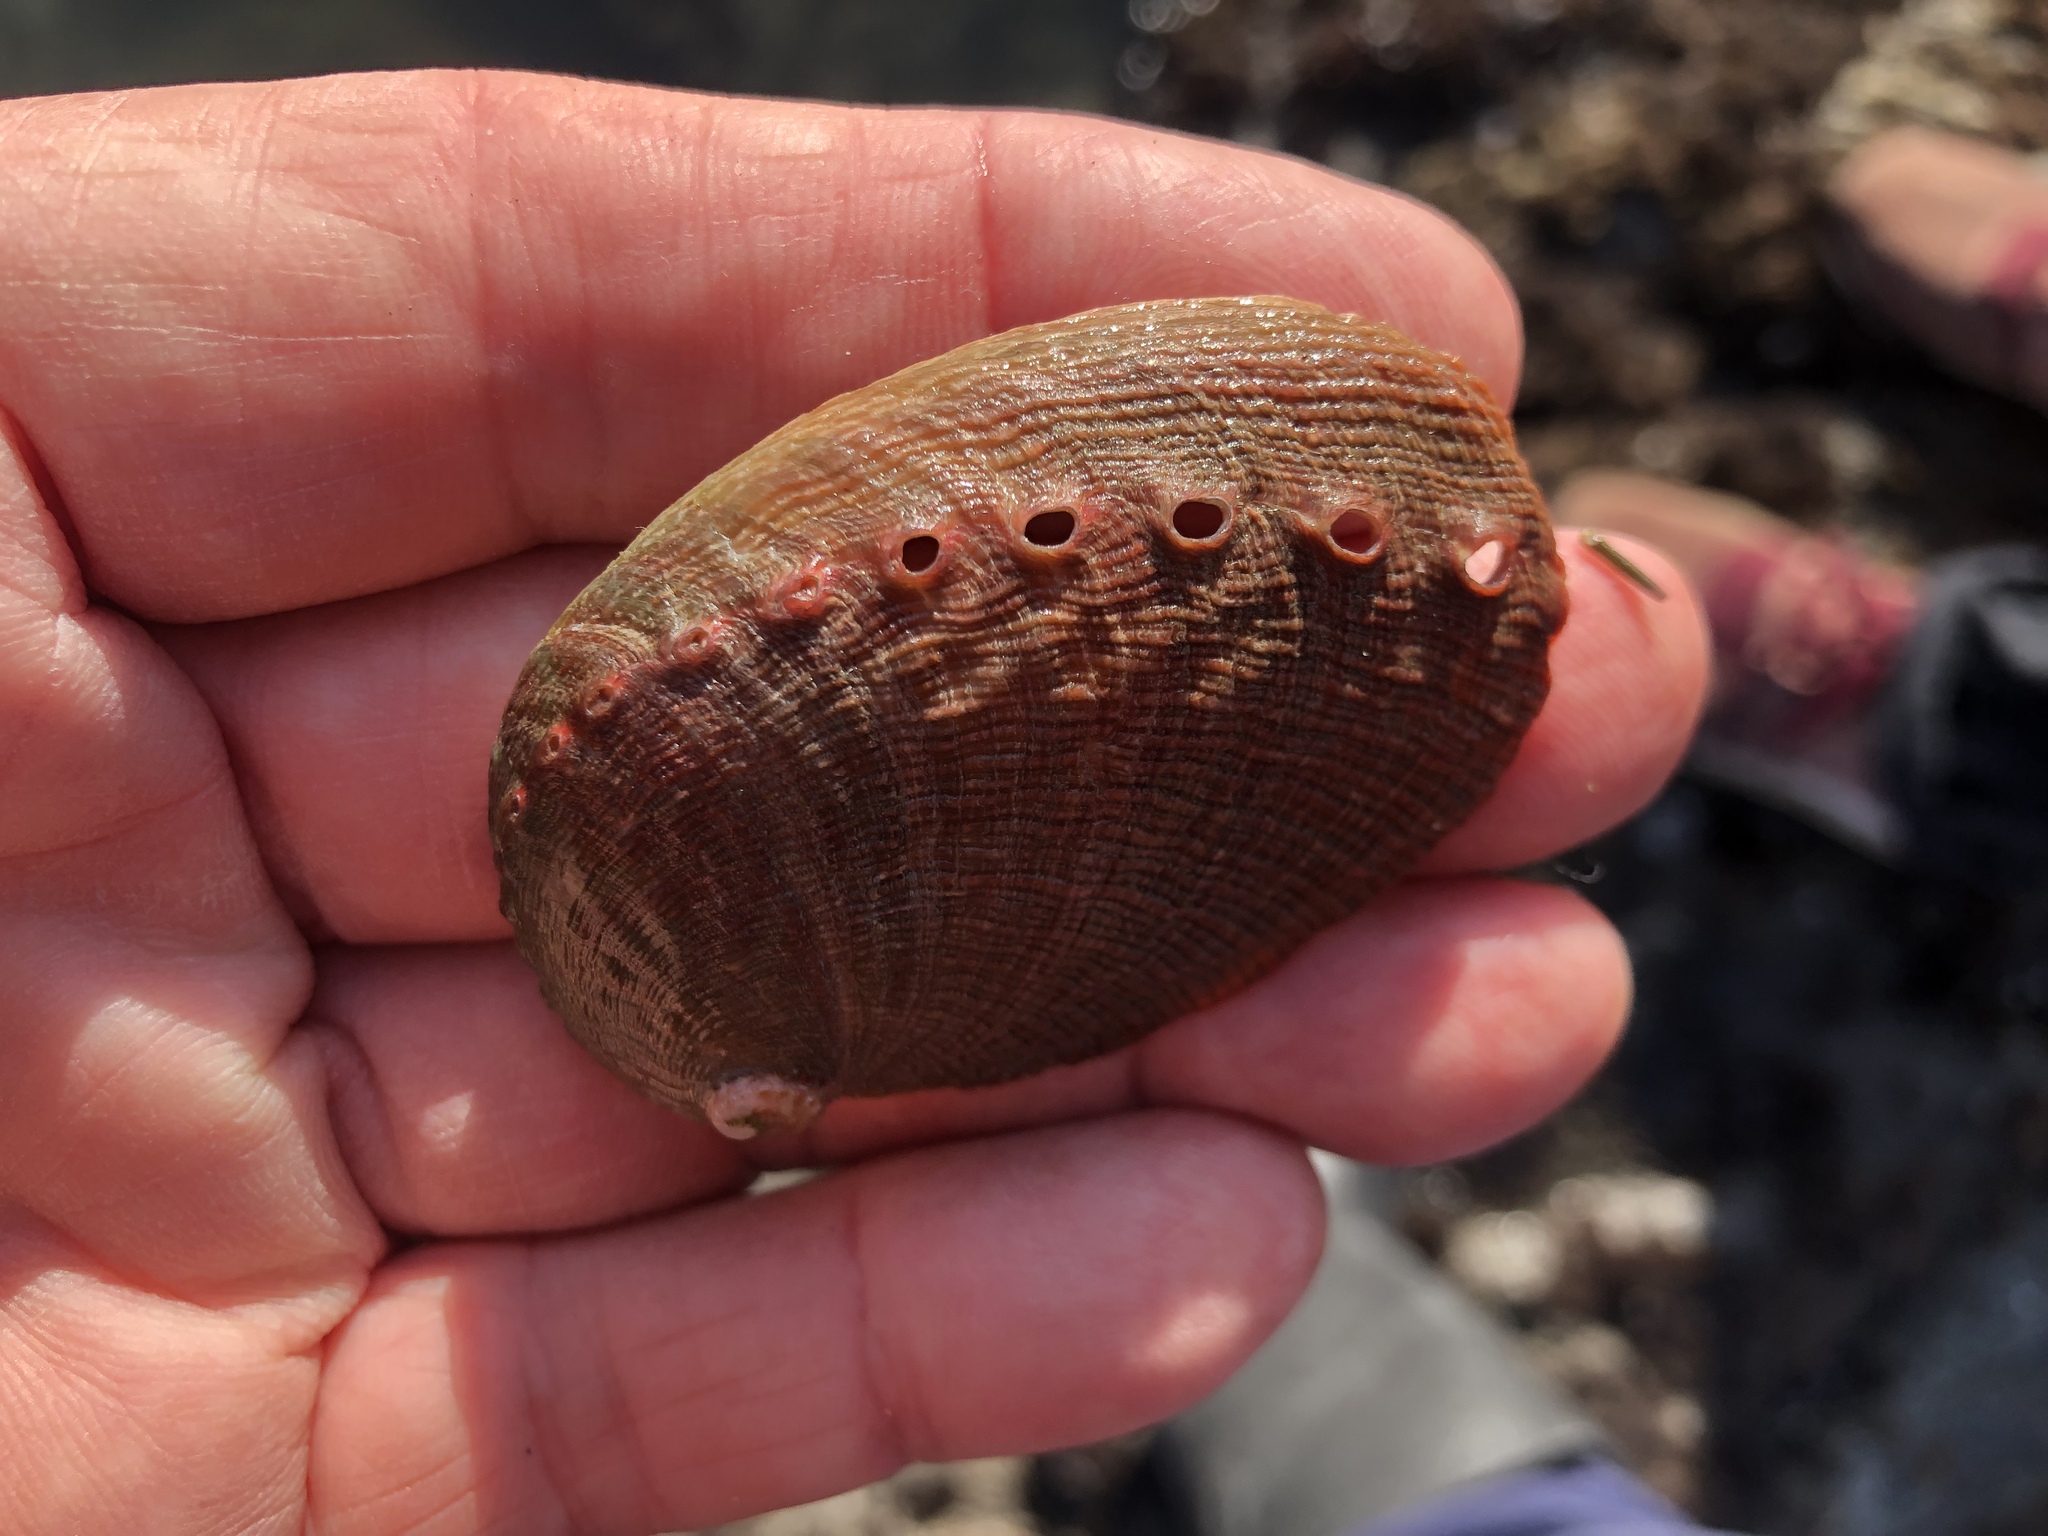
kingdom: Animalia
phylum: Mollusca
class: Gastropoda
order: Lepetellida
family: Haliotidae
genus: Haliotis
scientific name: Haliotis rufescens
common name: Red abalone
